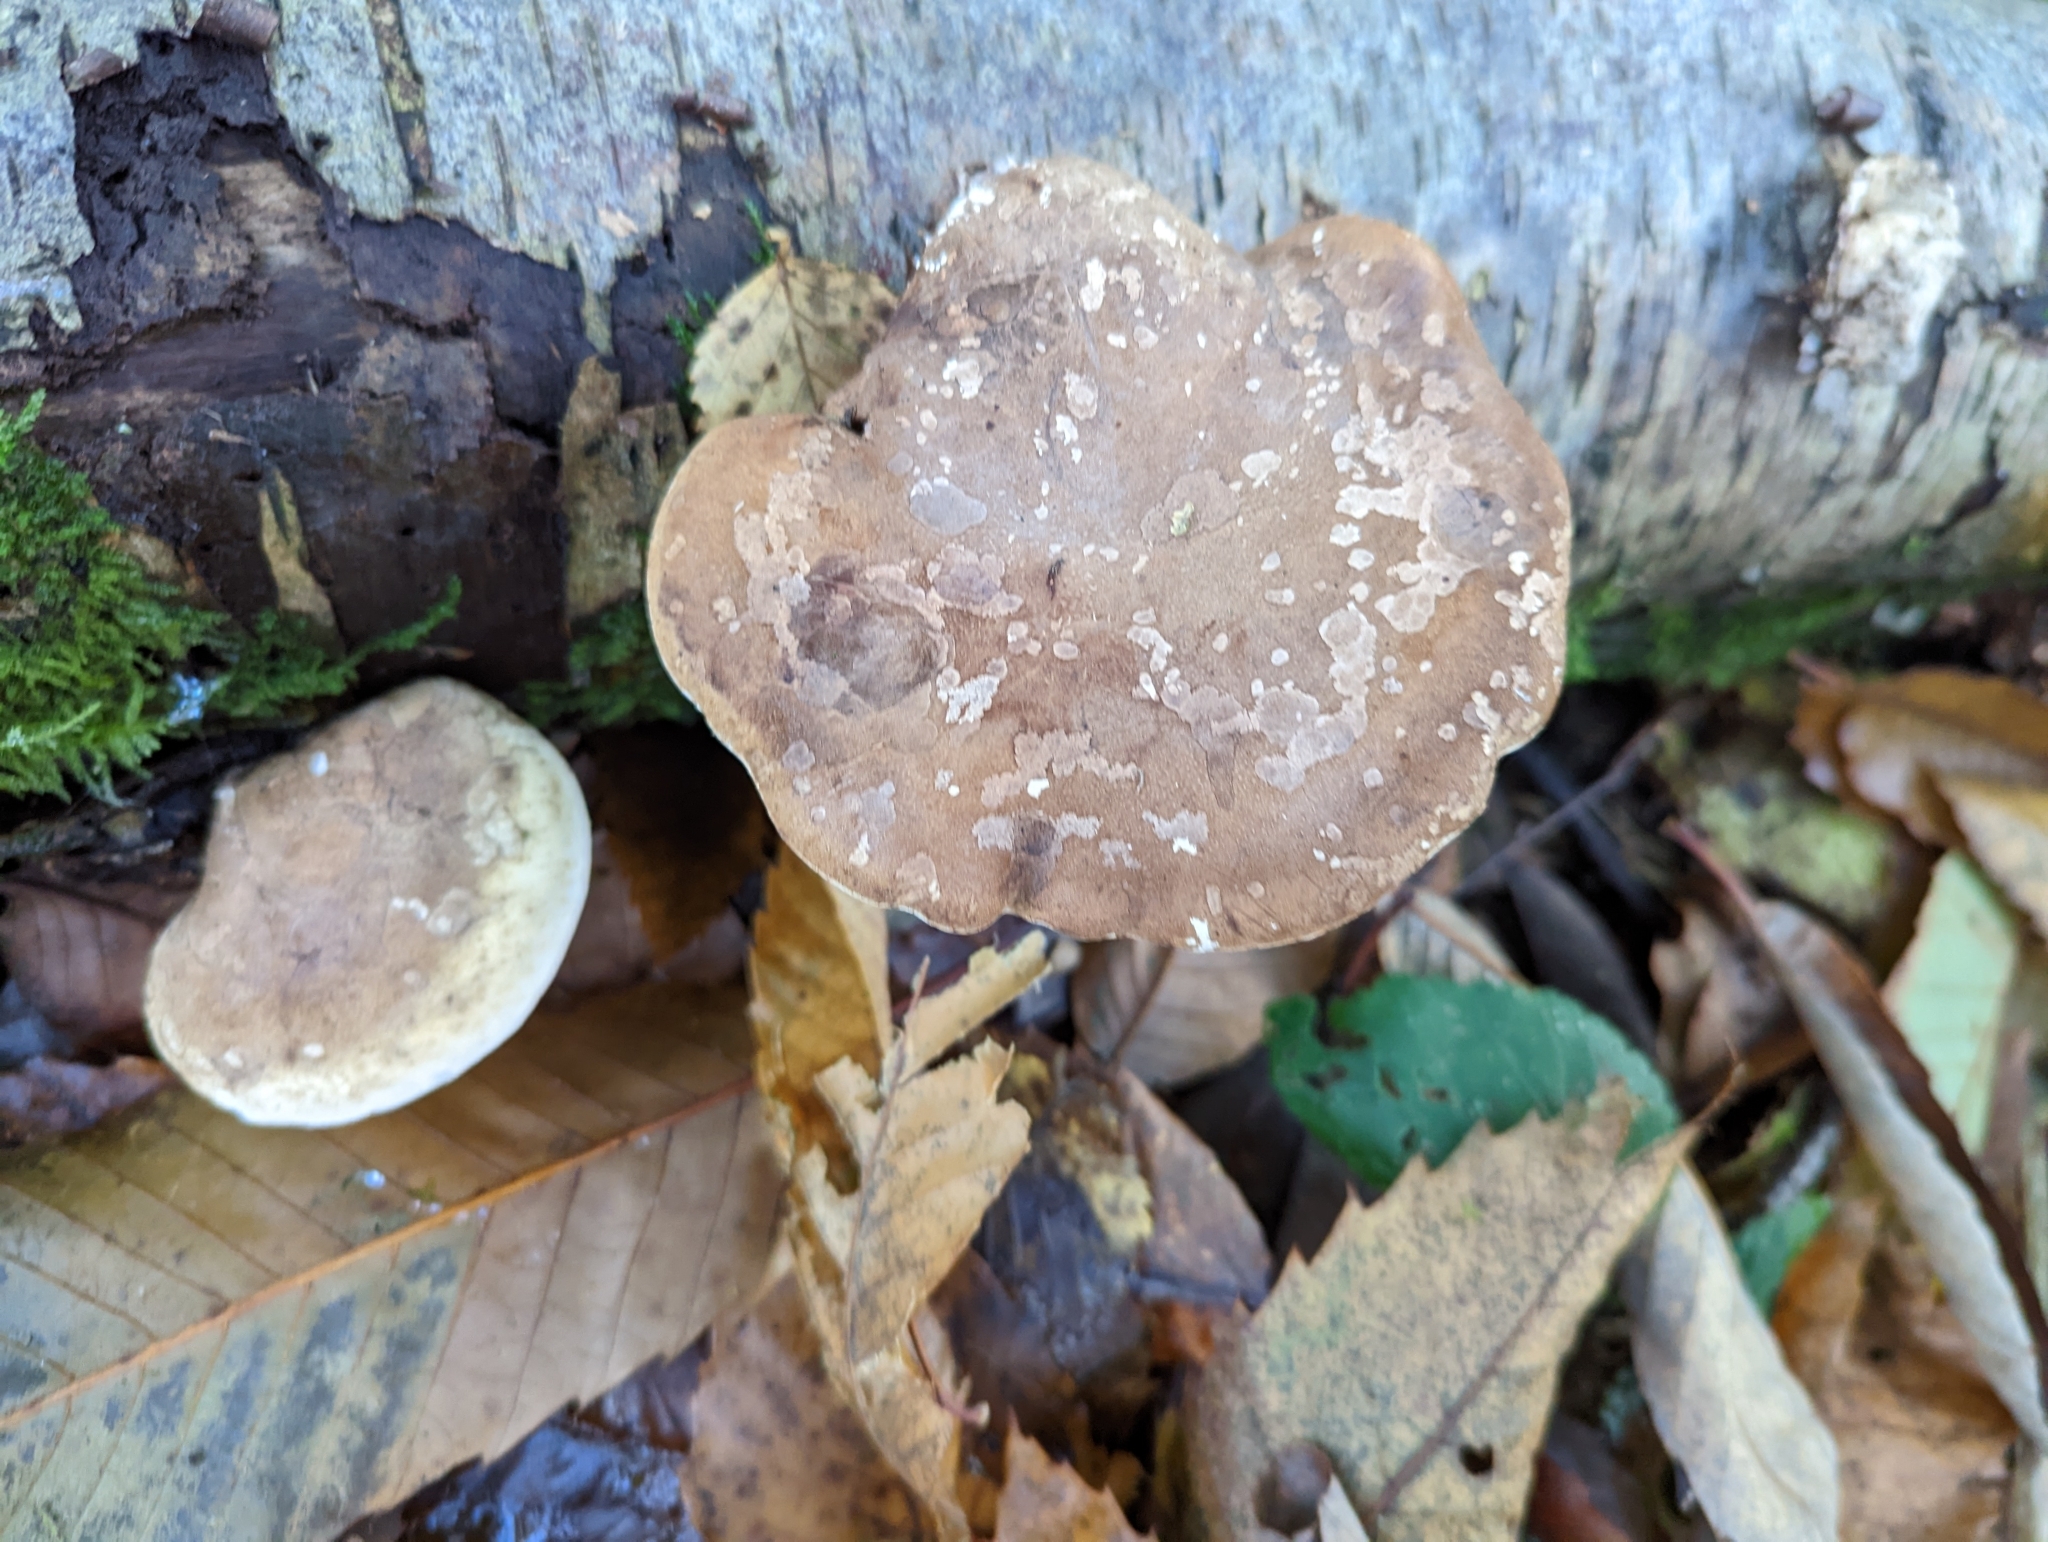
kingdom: Fungi
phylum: Basidiomycota
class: Agaricomycetes
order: Polyporales
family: Fomitopsidaceae
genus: Fomitopsis
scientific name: Fomitopsis betulina
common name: Birch polypore
